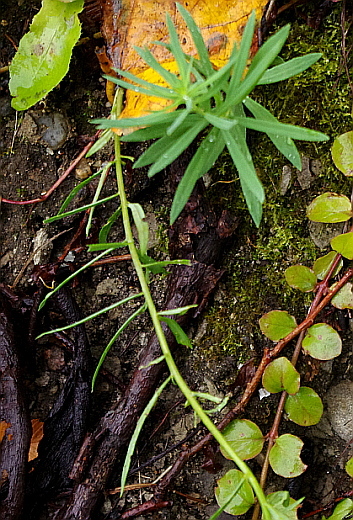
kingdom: Plantae
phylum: Tracheophyta
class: Magnoliopsida
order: Lamiales
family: Plantaginaceae
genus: Linaria
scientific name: Linaria vulgaris
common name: Butter and eggs
